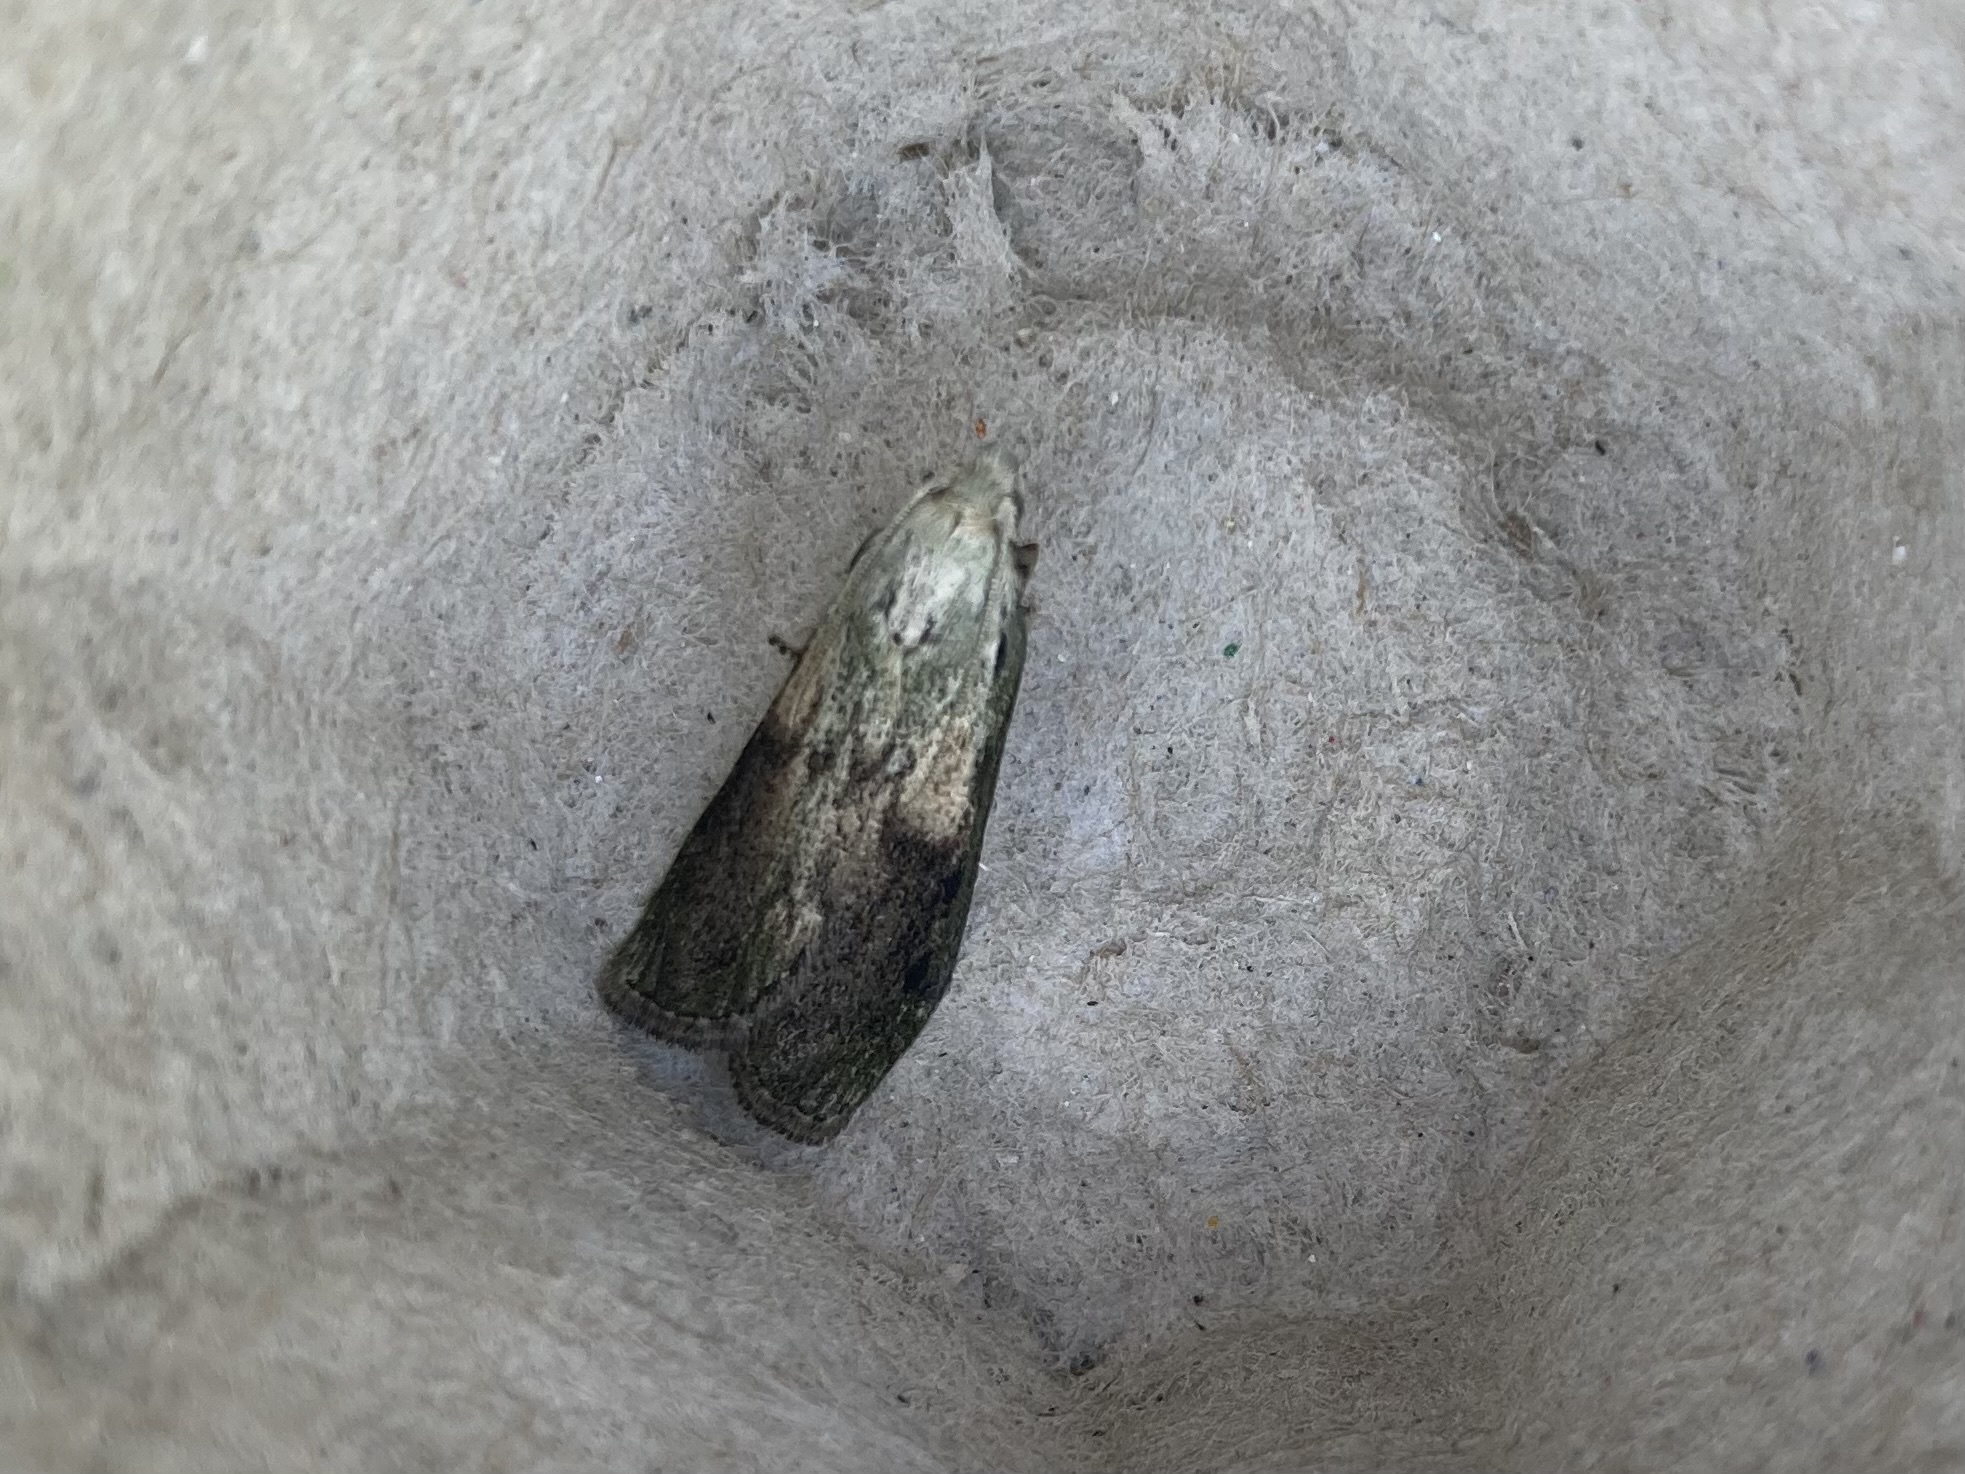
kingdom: Animalia
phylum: Arthropoda
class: Insecta
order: Lepidoptera
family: Pyralidae
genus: Aphomia
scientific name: Aphomia sociella
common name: Bee moth
